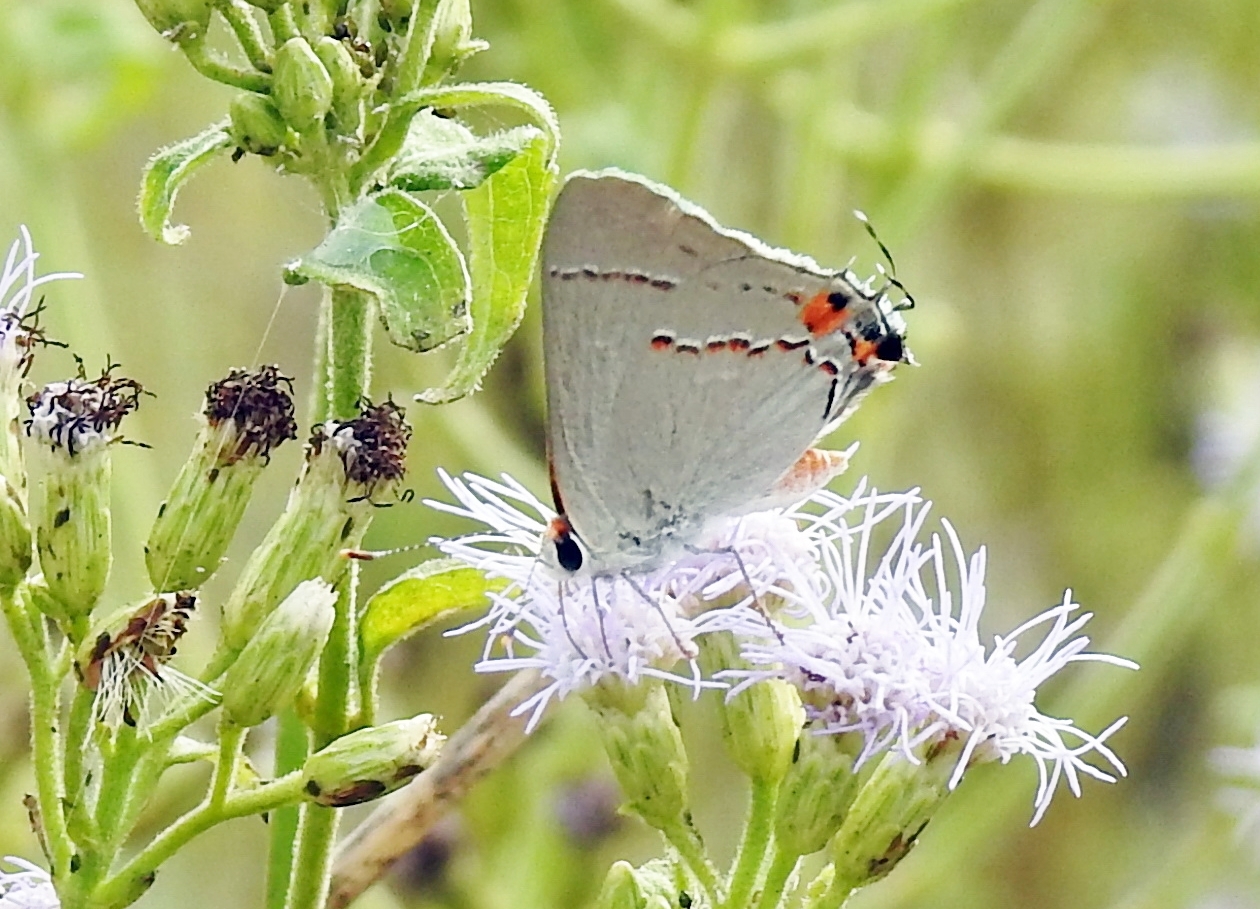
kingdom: Animalia
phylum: Arthropoda
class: Insecta
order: Lepidoptera
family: Lycaenidae
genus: Strymon
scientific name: Strymon melinus
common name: Gray hairstreak
